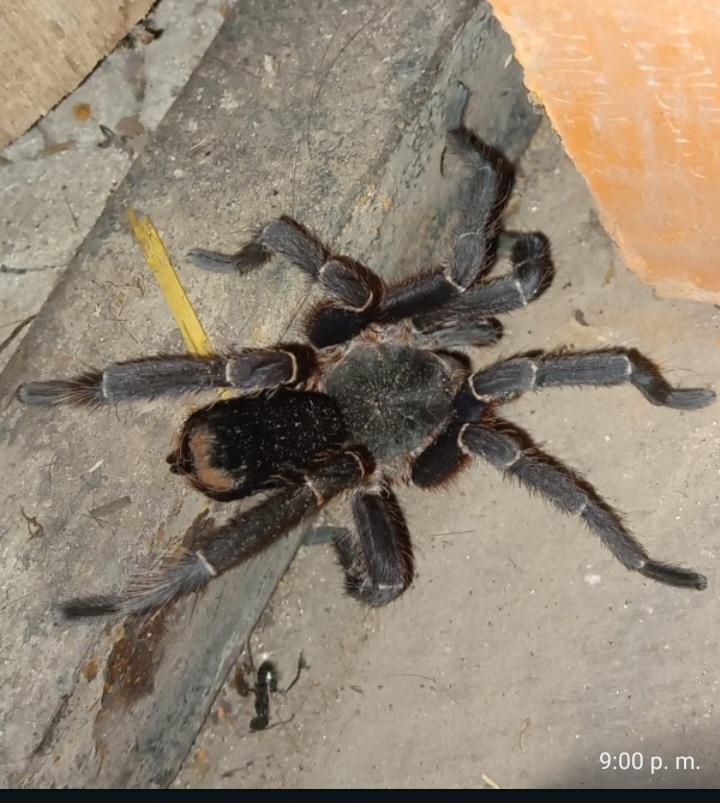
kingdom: Animalia
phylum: Arthropoda
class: Arachnida
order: Araneae
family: Theraphosidae
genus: Eupalaestrus
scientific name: Eupalaestrus weijenberghi
